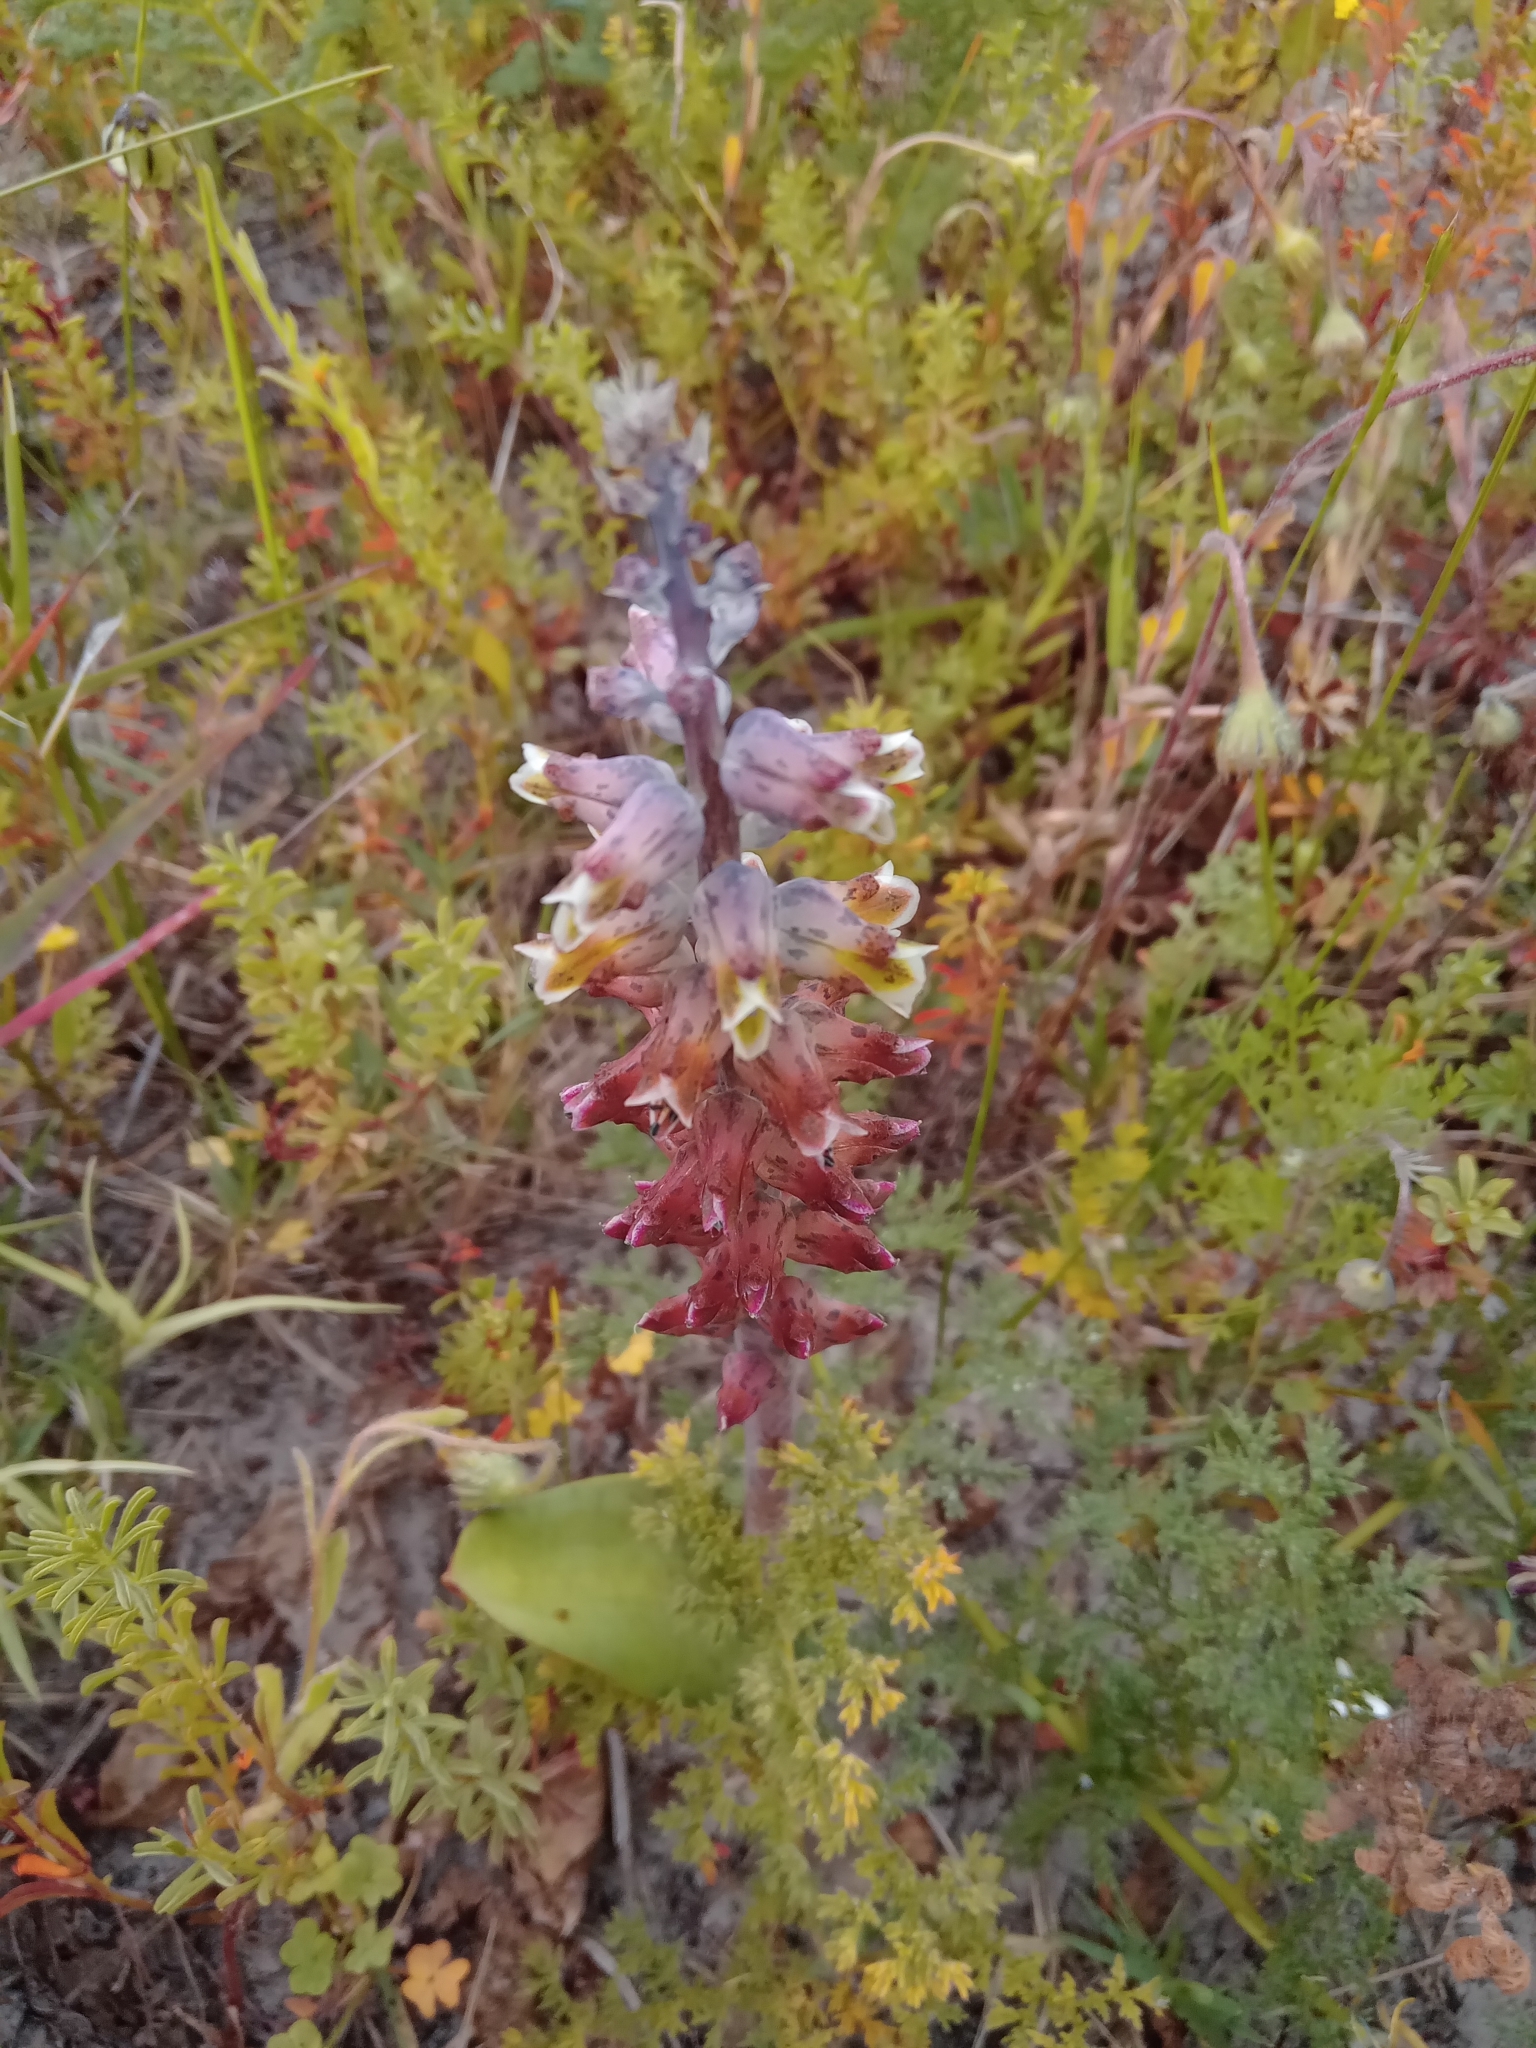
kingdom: Plantae
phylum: Tracheophyta
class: Liliopsida
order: Asparagales
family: Asparagaceae
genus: Lachenalia
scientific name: Lachenalia variegata
